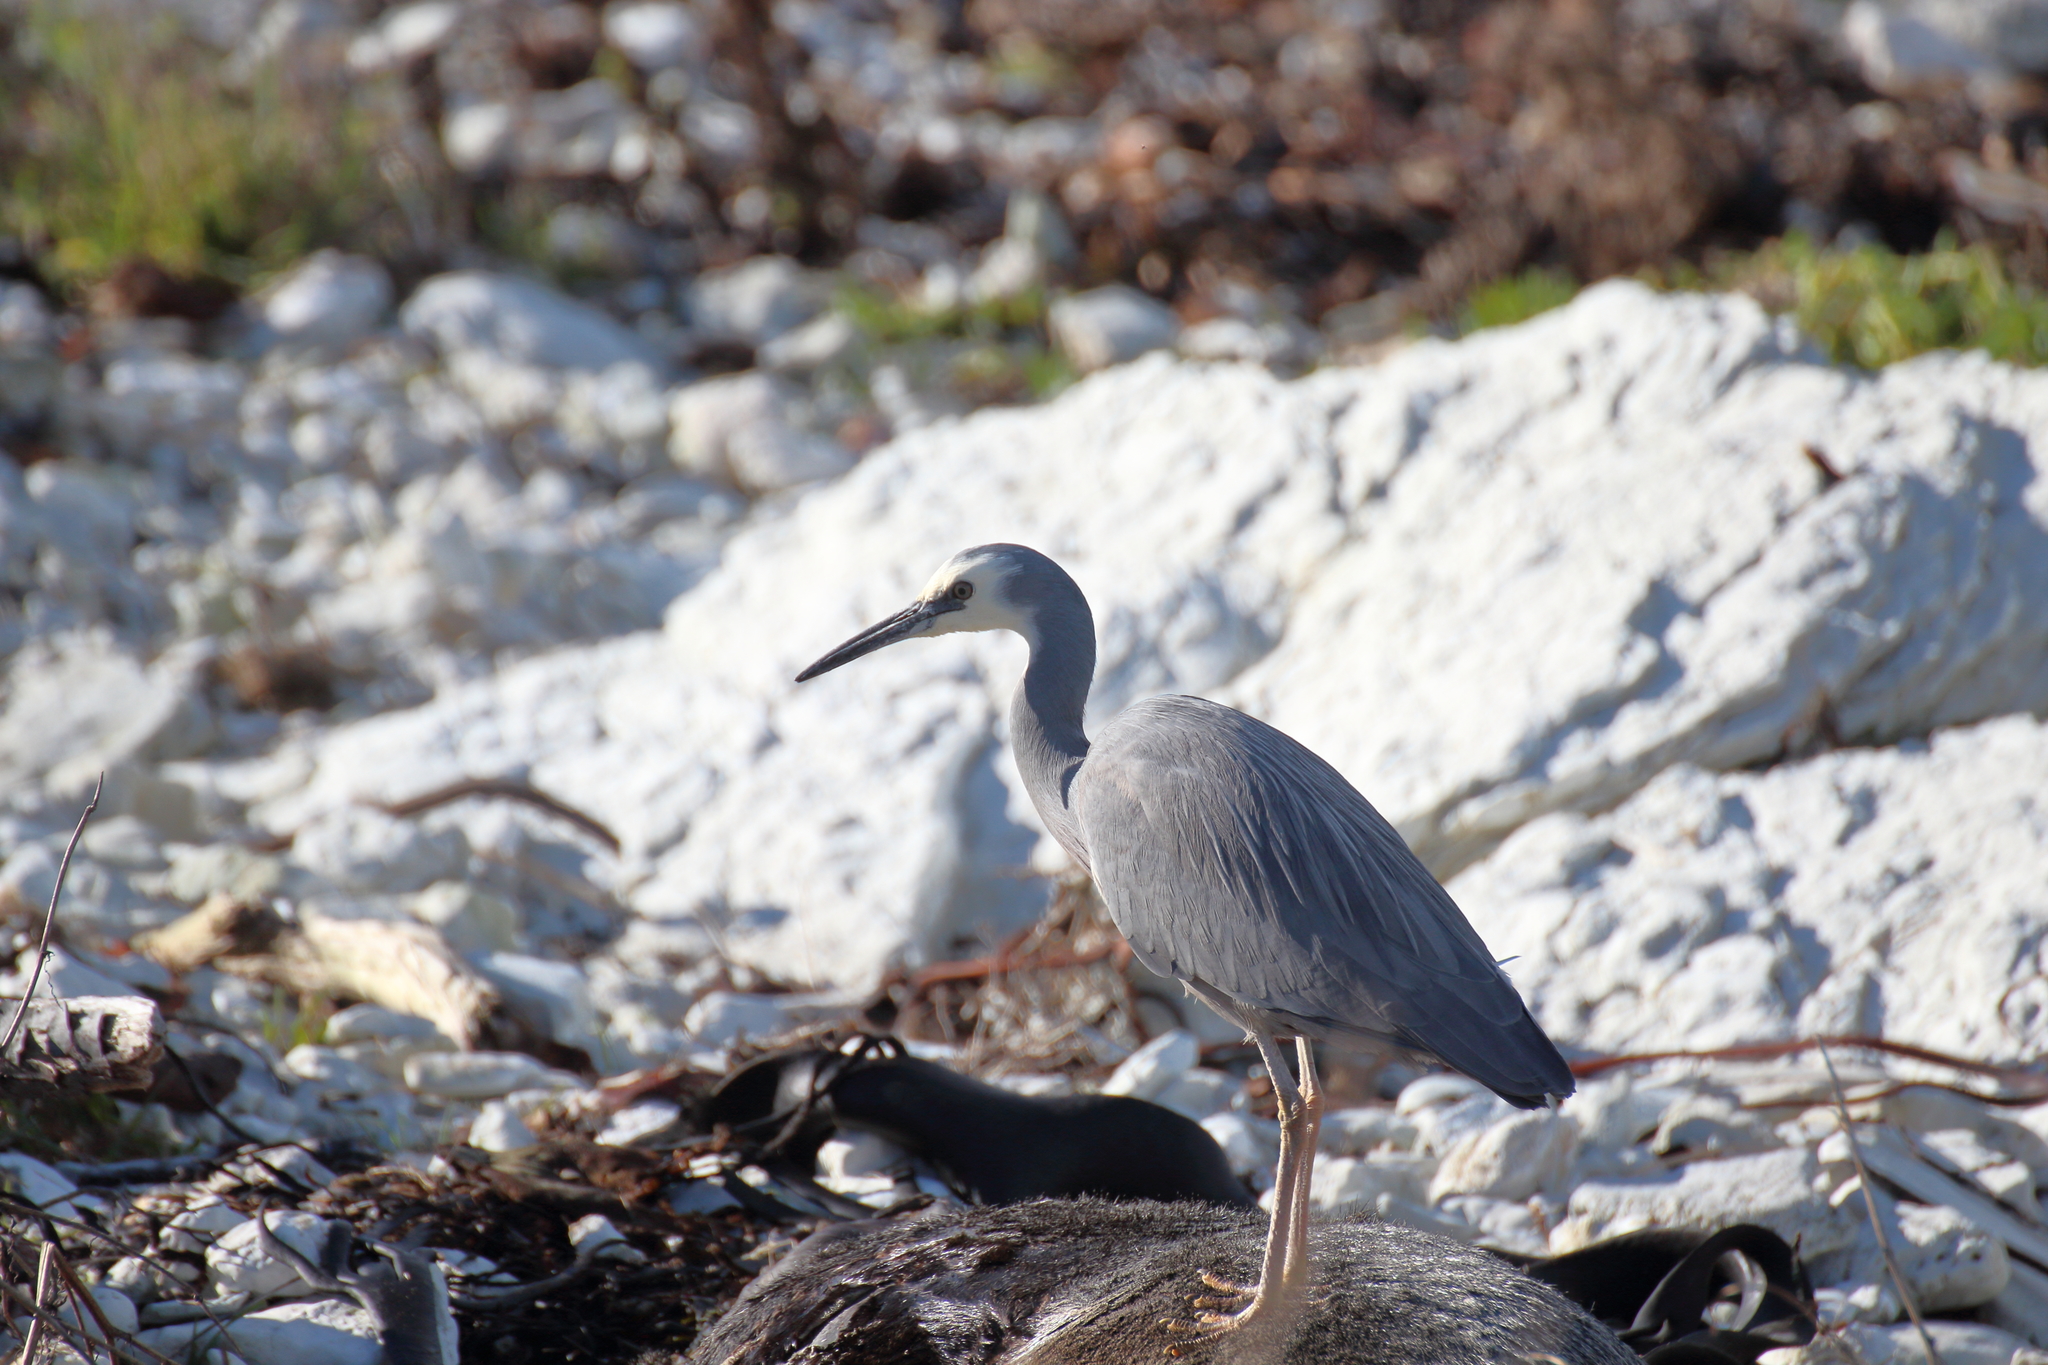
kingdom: Animalia
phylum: Chordata
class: Aves
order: Pelecaniformes
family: Ardeidae
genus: Egretta
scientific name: Egretta novaehollandiae
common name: White-faced heron
